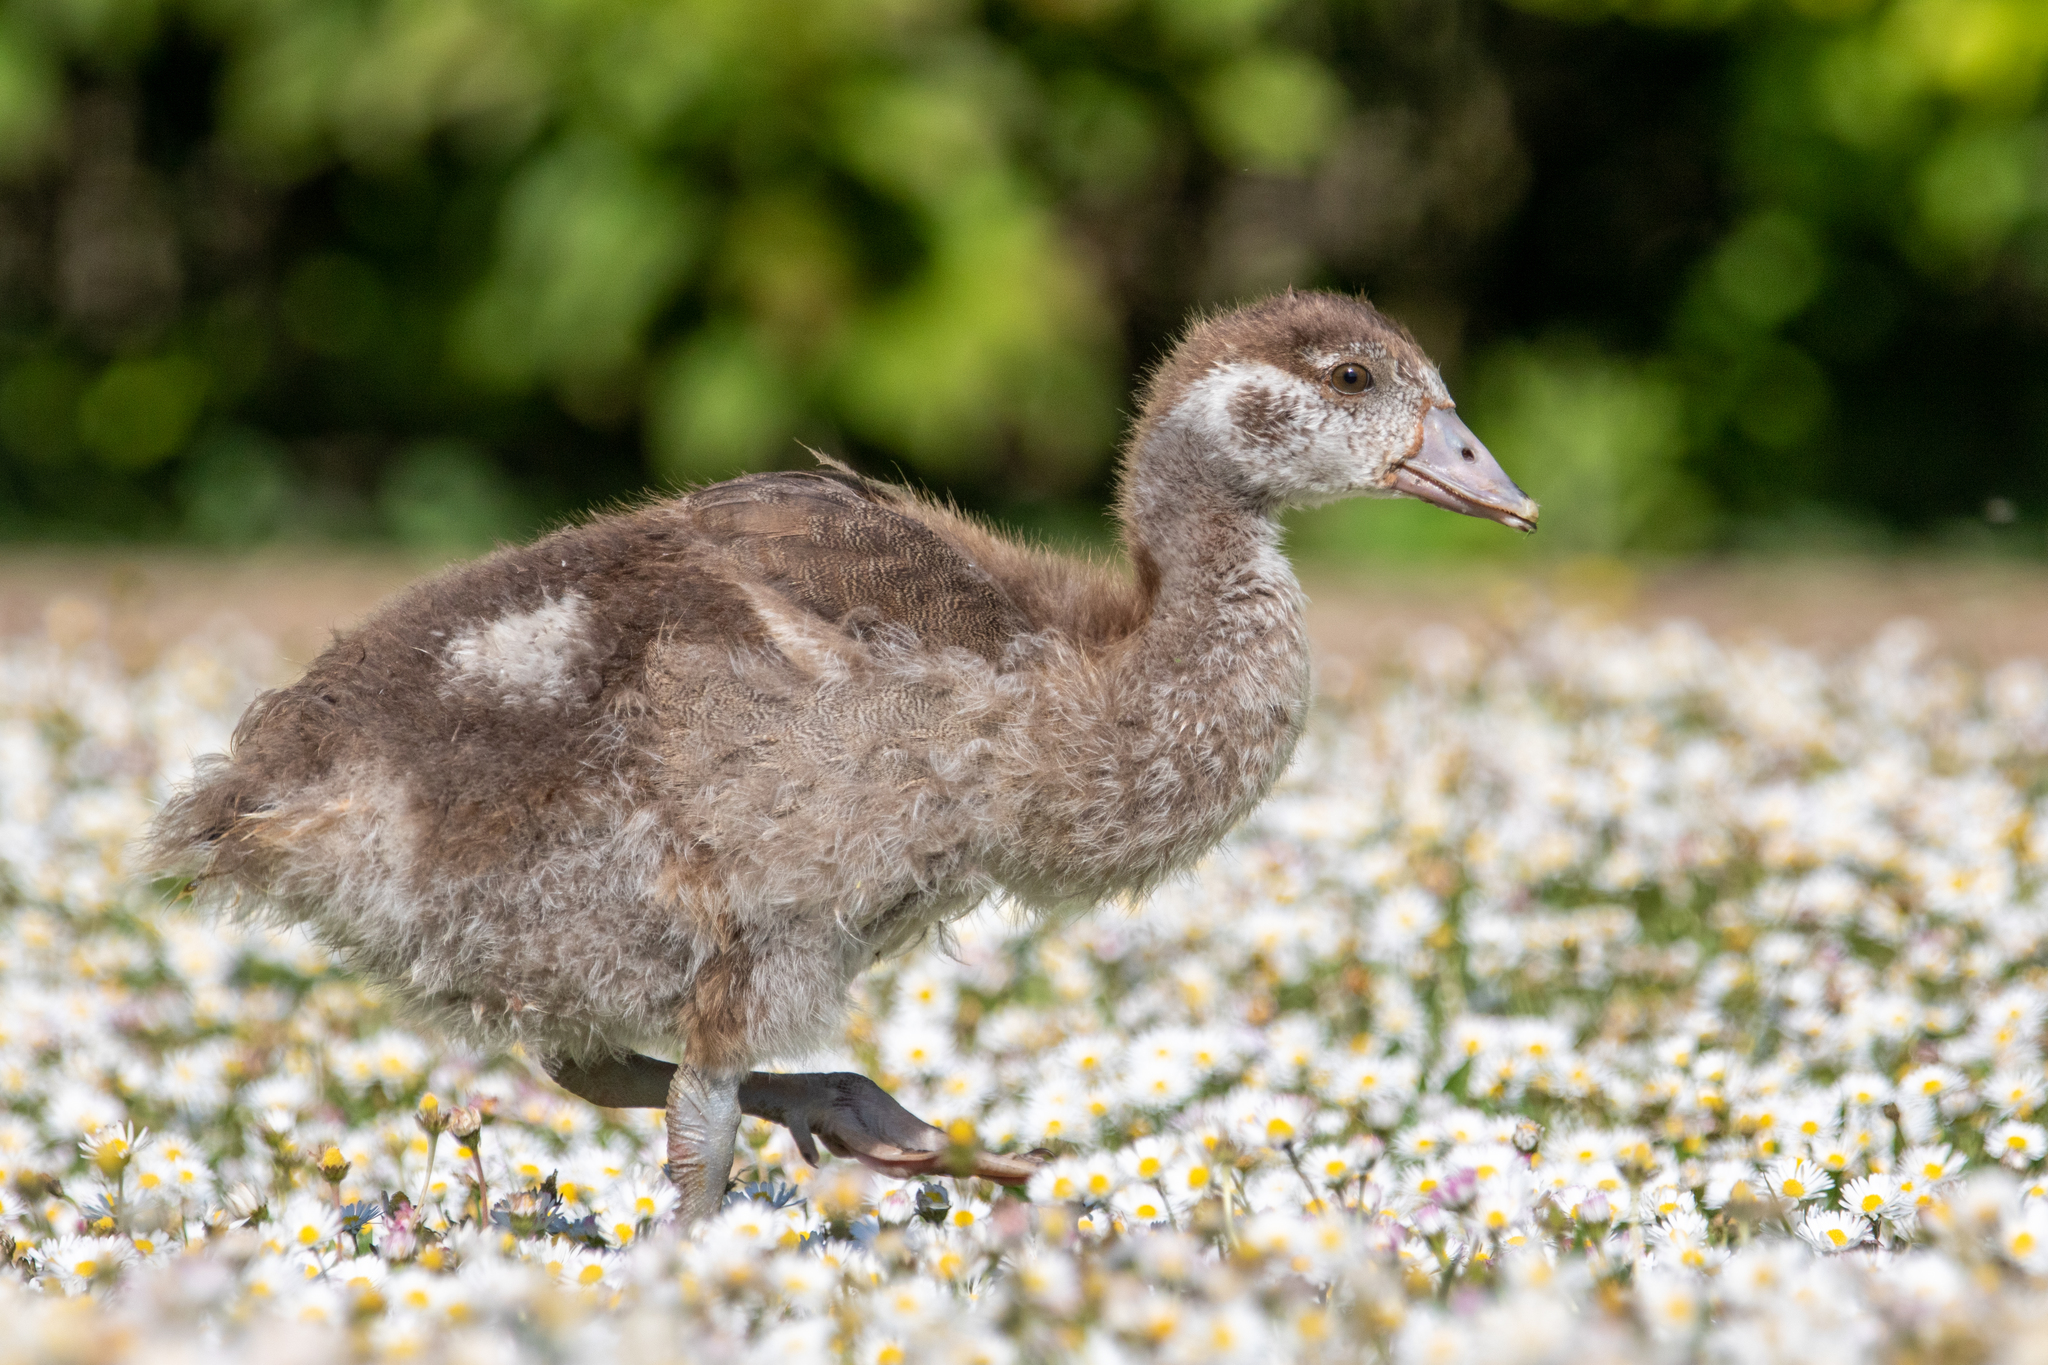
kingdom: Animalia
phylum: Chordata
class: Aves
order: Anseriformes
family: Anatidae
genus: Alopochen
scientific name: Alopochen aegyptiaca
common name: Egyptian goose
